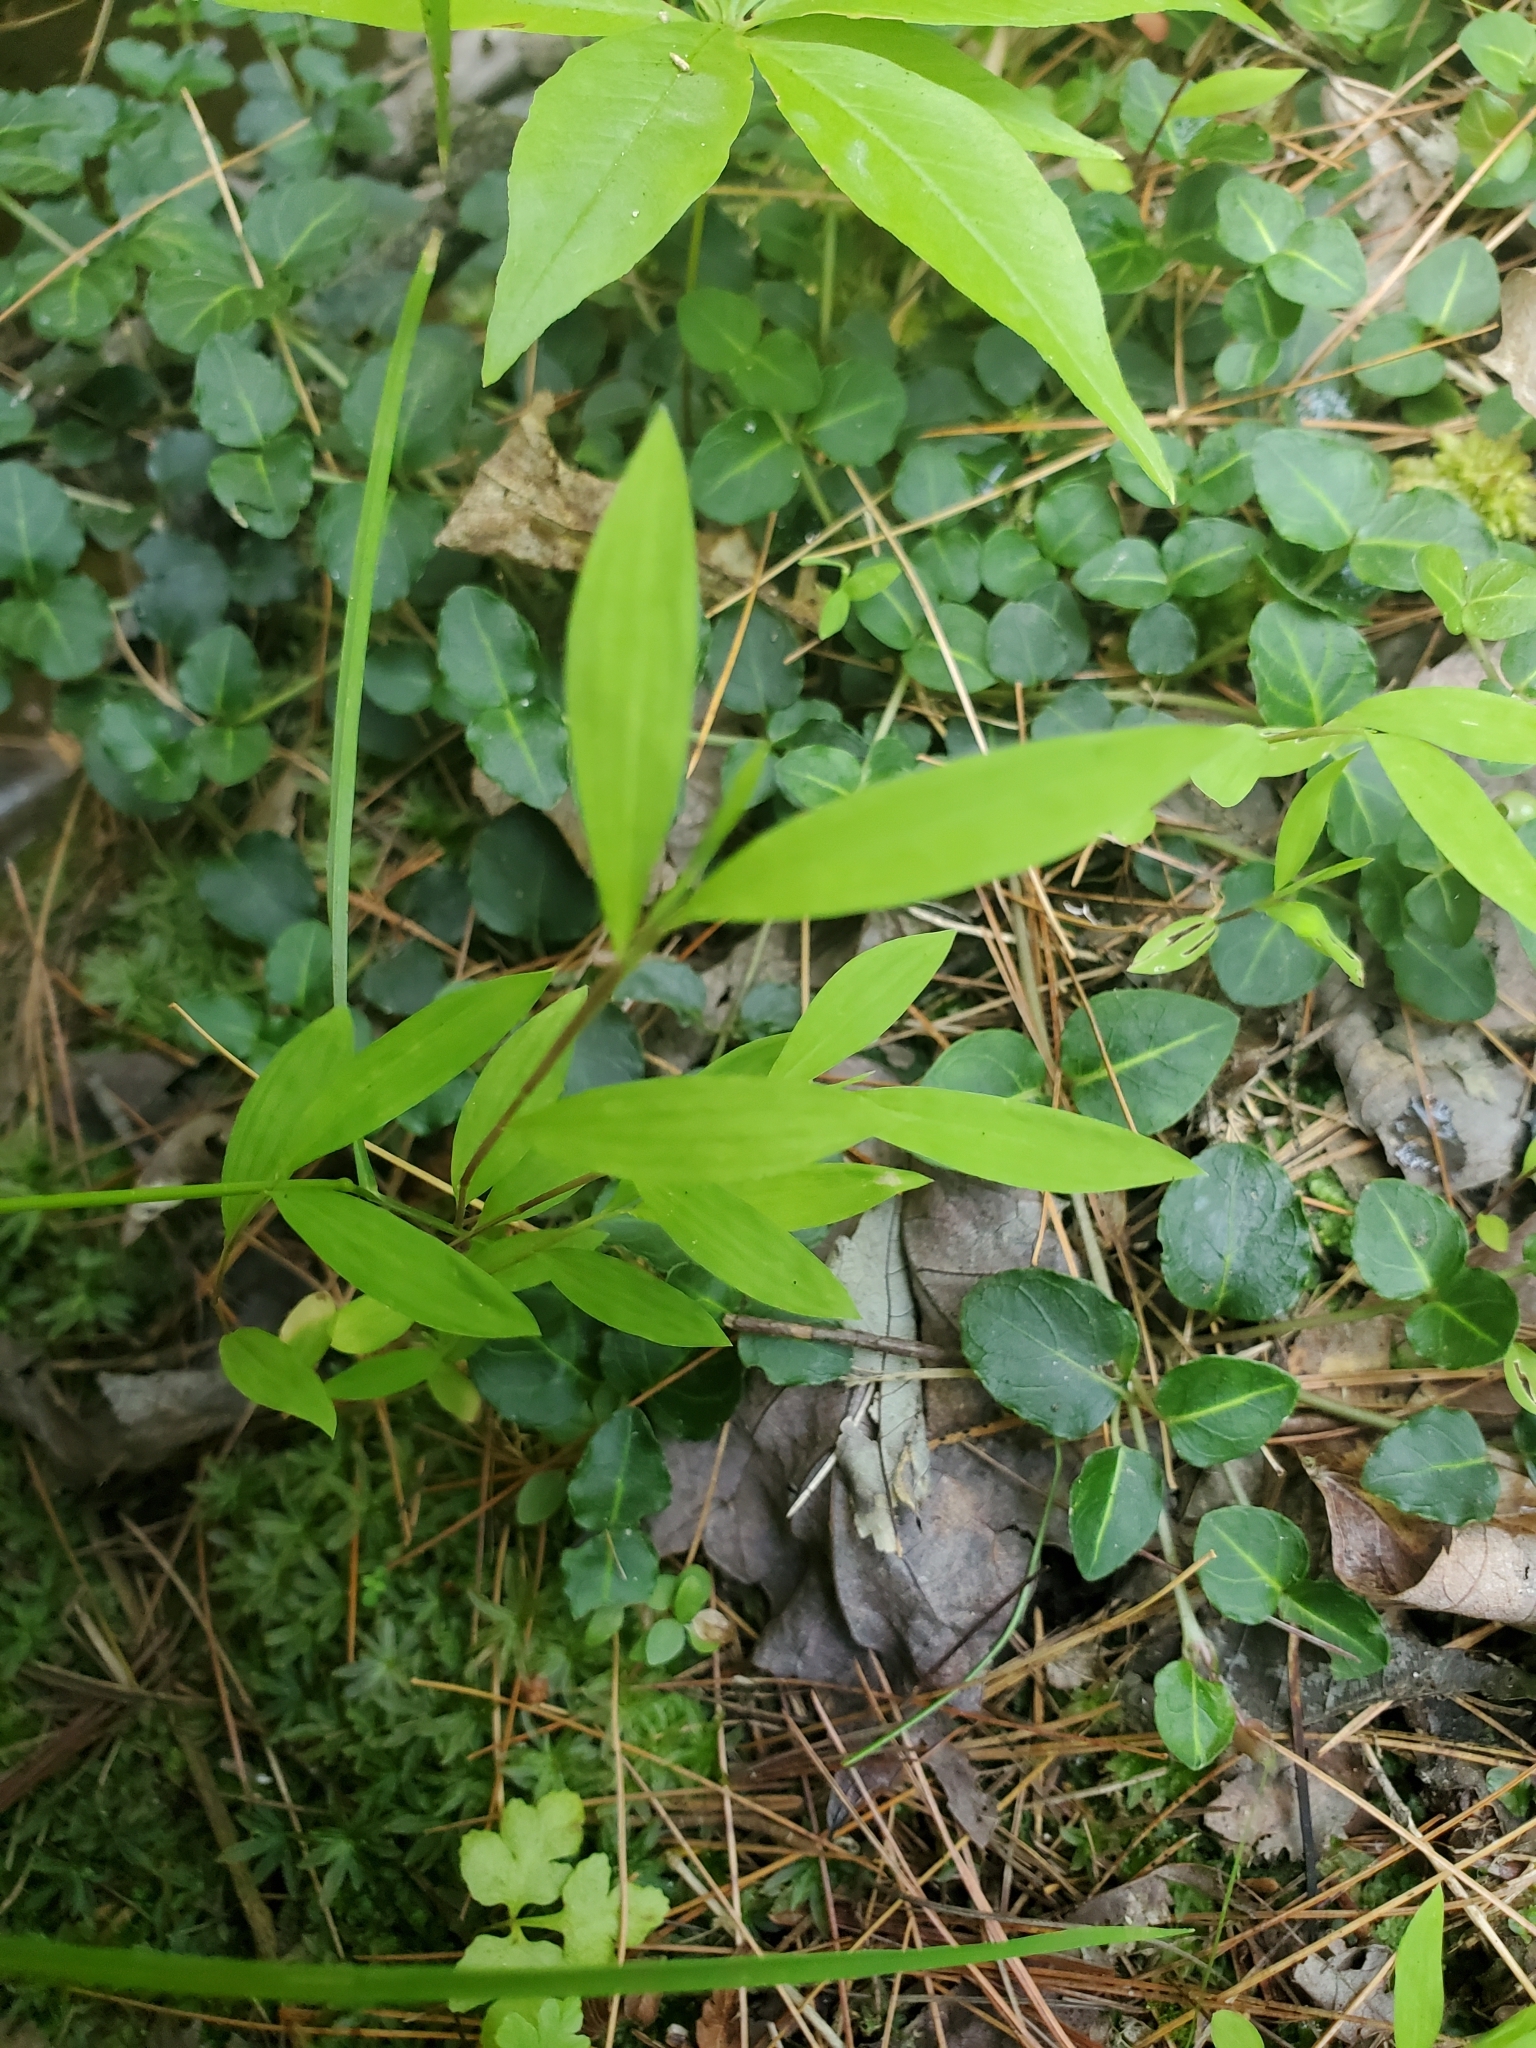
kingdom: Plantae
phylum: Tracheophyta
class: Liliopsida
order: Poales
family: Poaceae
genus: Microstegium
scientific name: Microstegium vimineum
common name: Japanese stiltgrass
